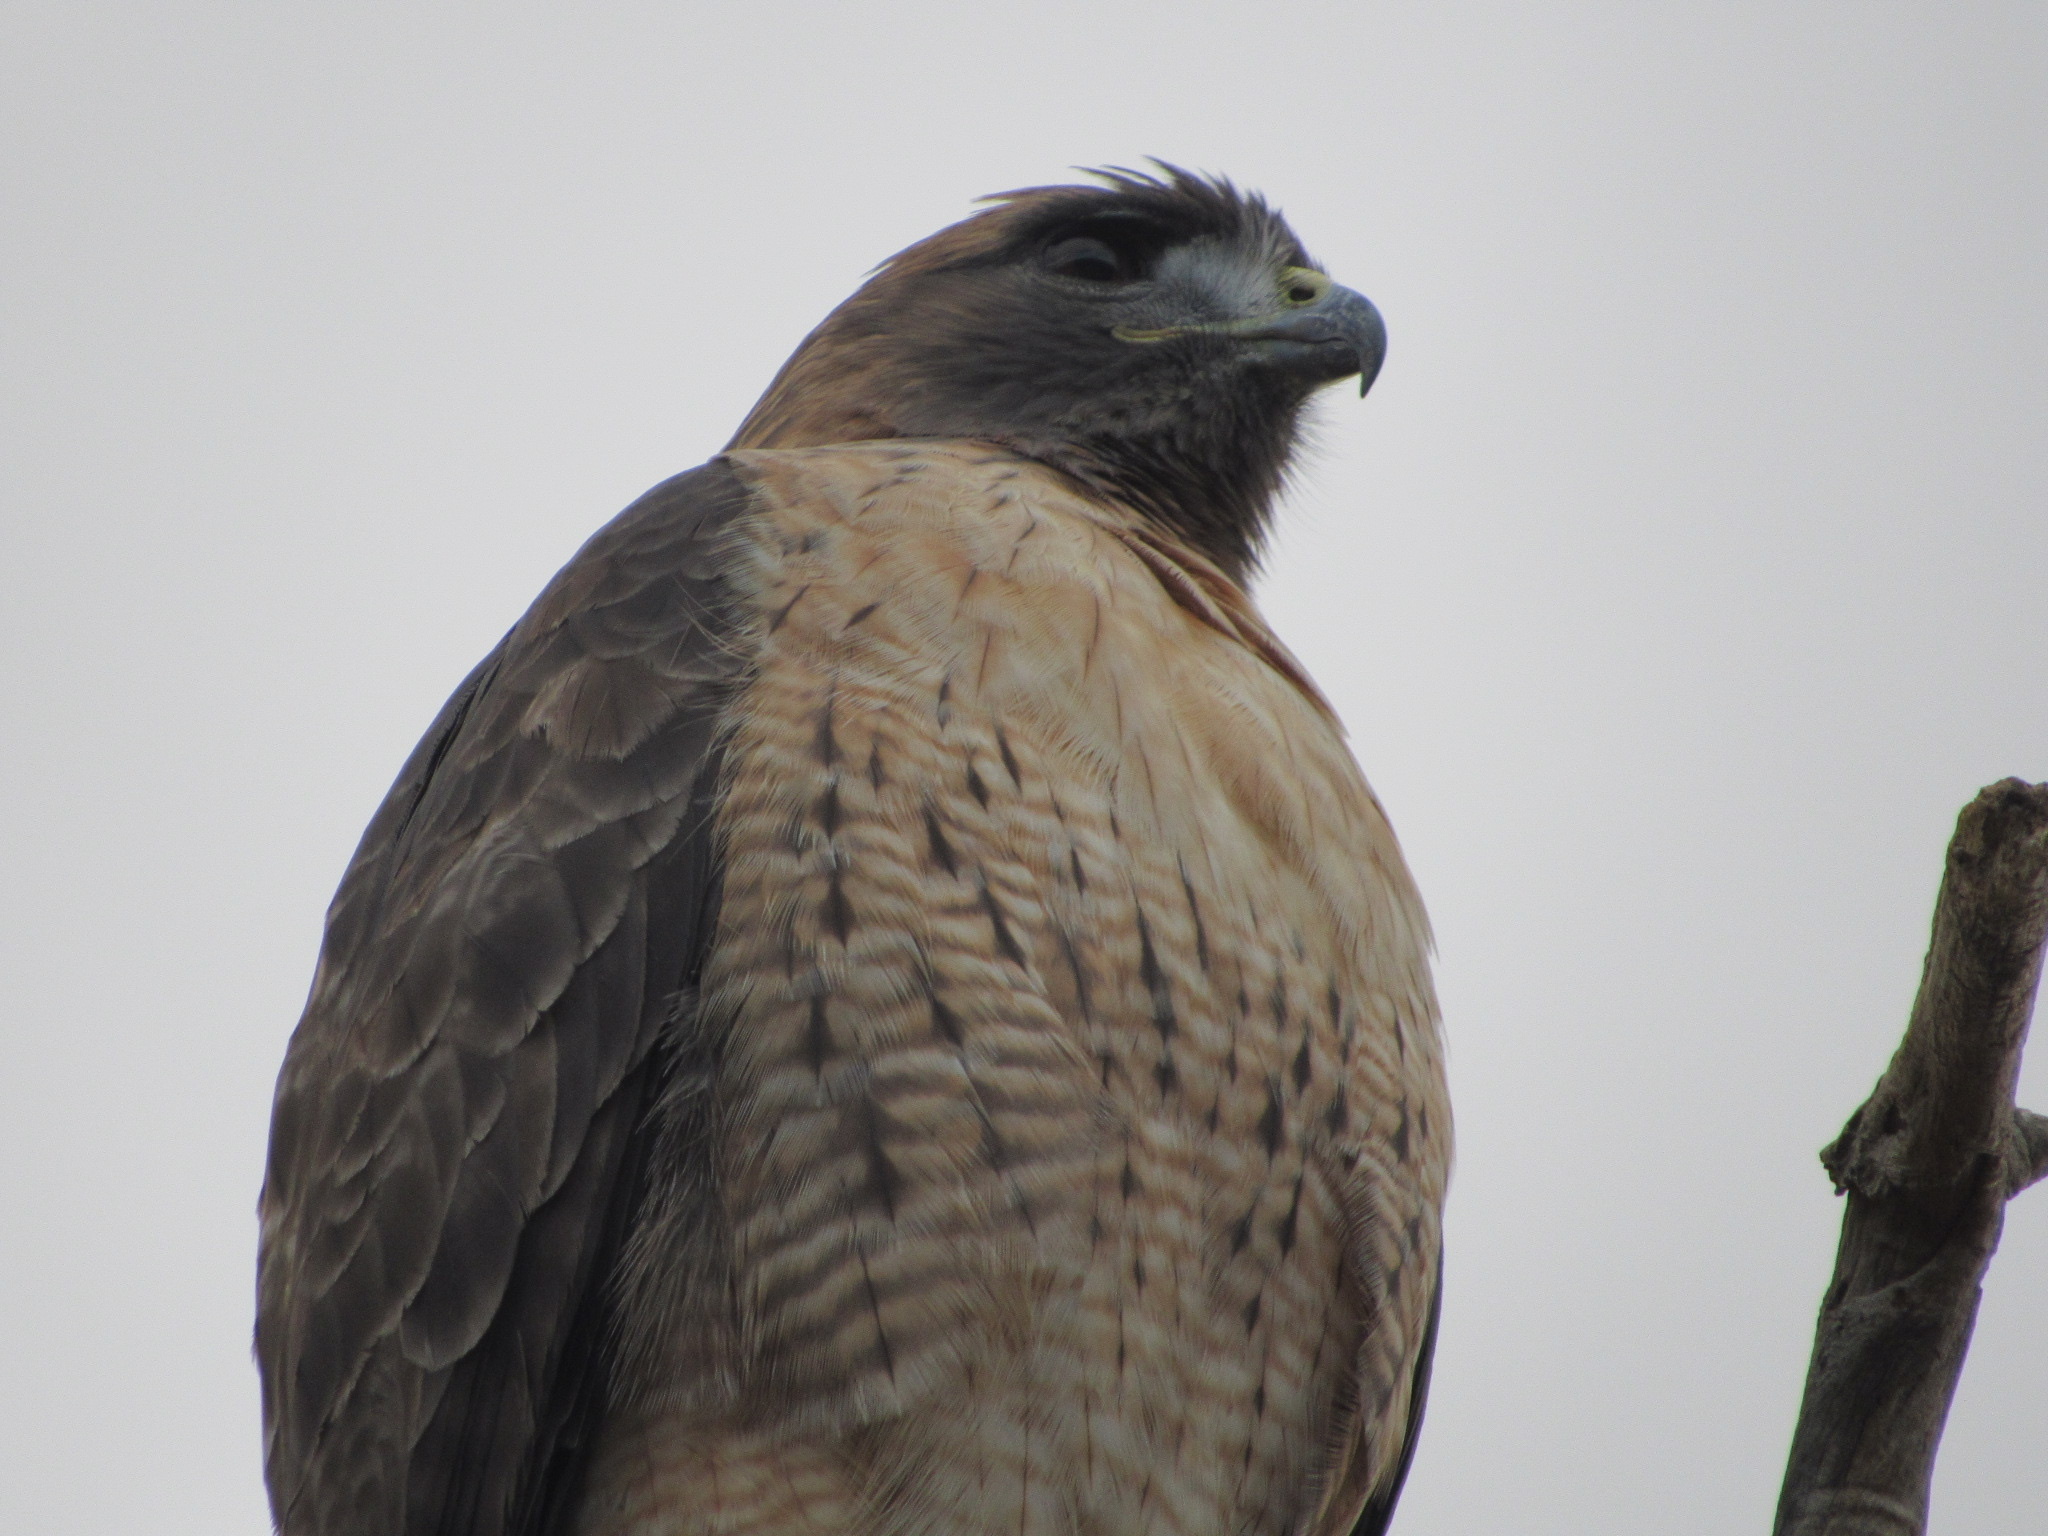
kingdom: Animalia
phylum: Chordata
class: Aves
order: Accipitriformes
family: Accipitridae
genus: Buteo
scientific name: Buteo jamaicensis
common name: Red-tailed hawk
